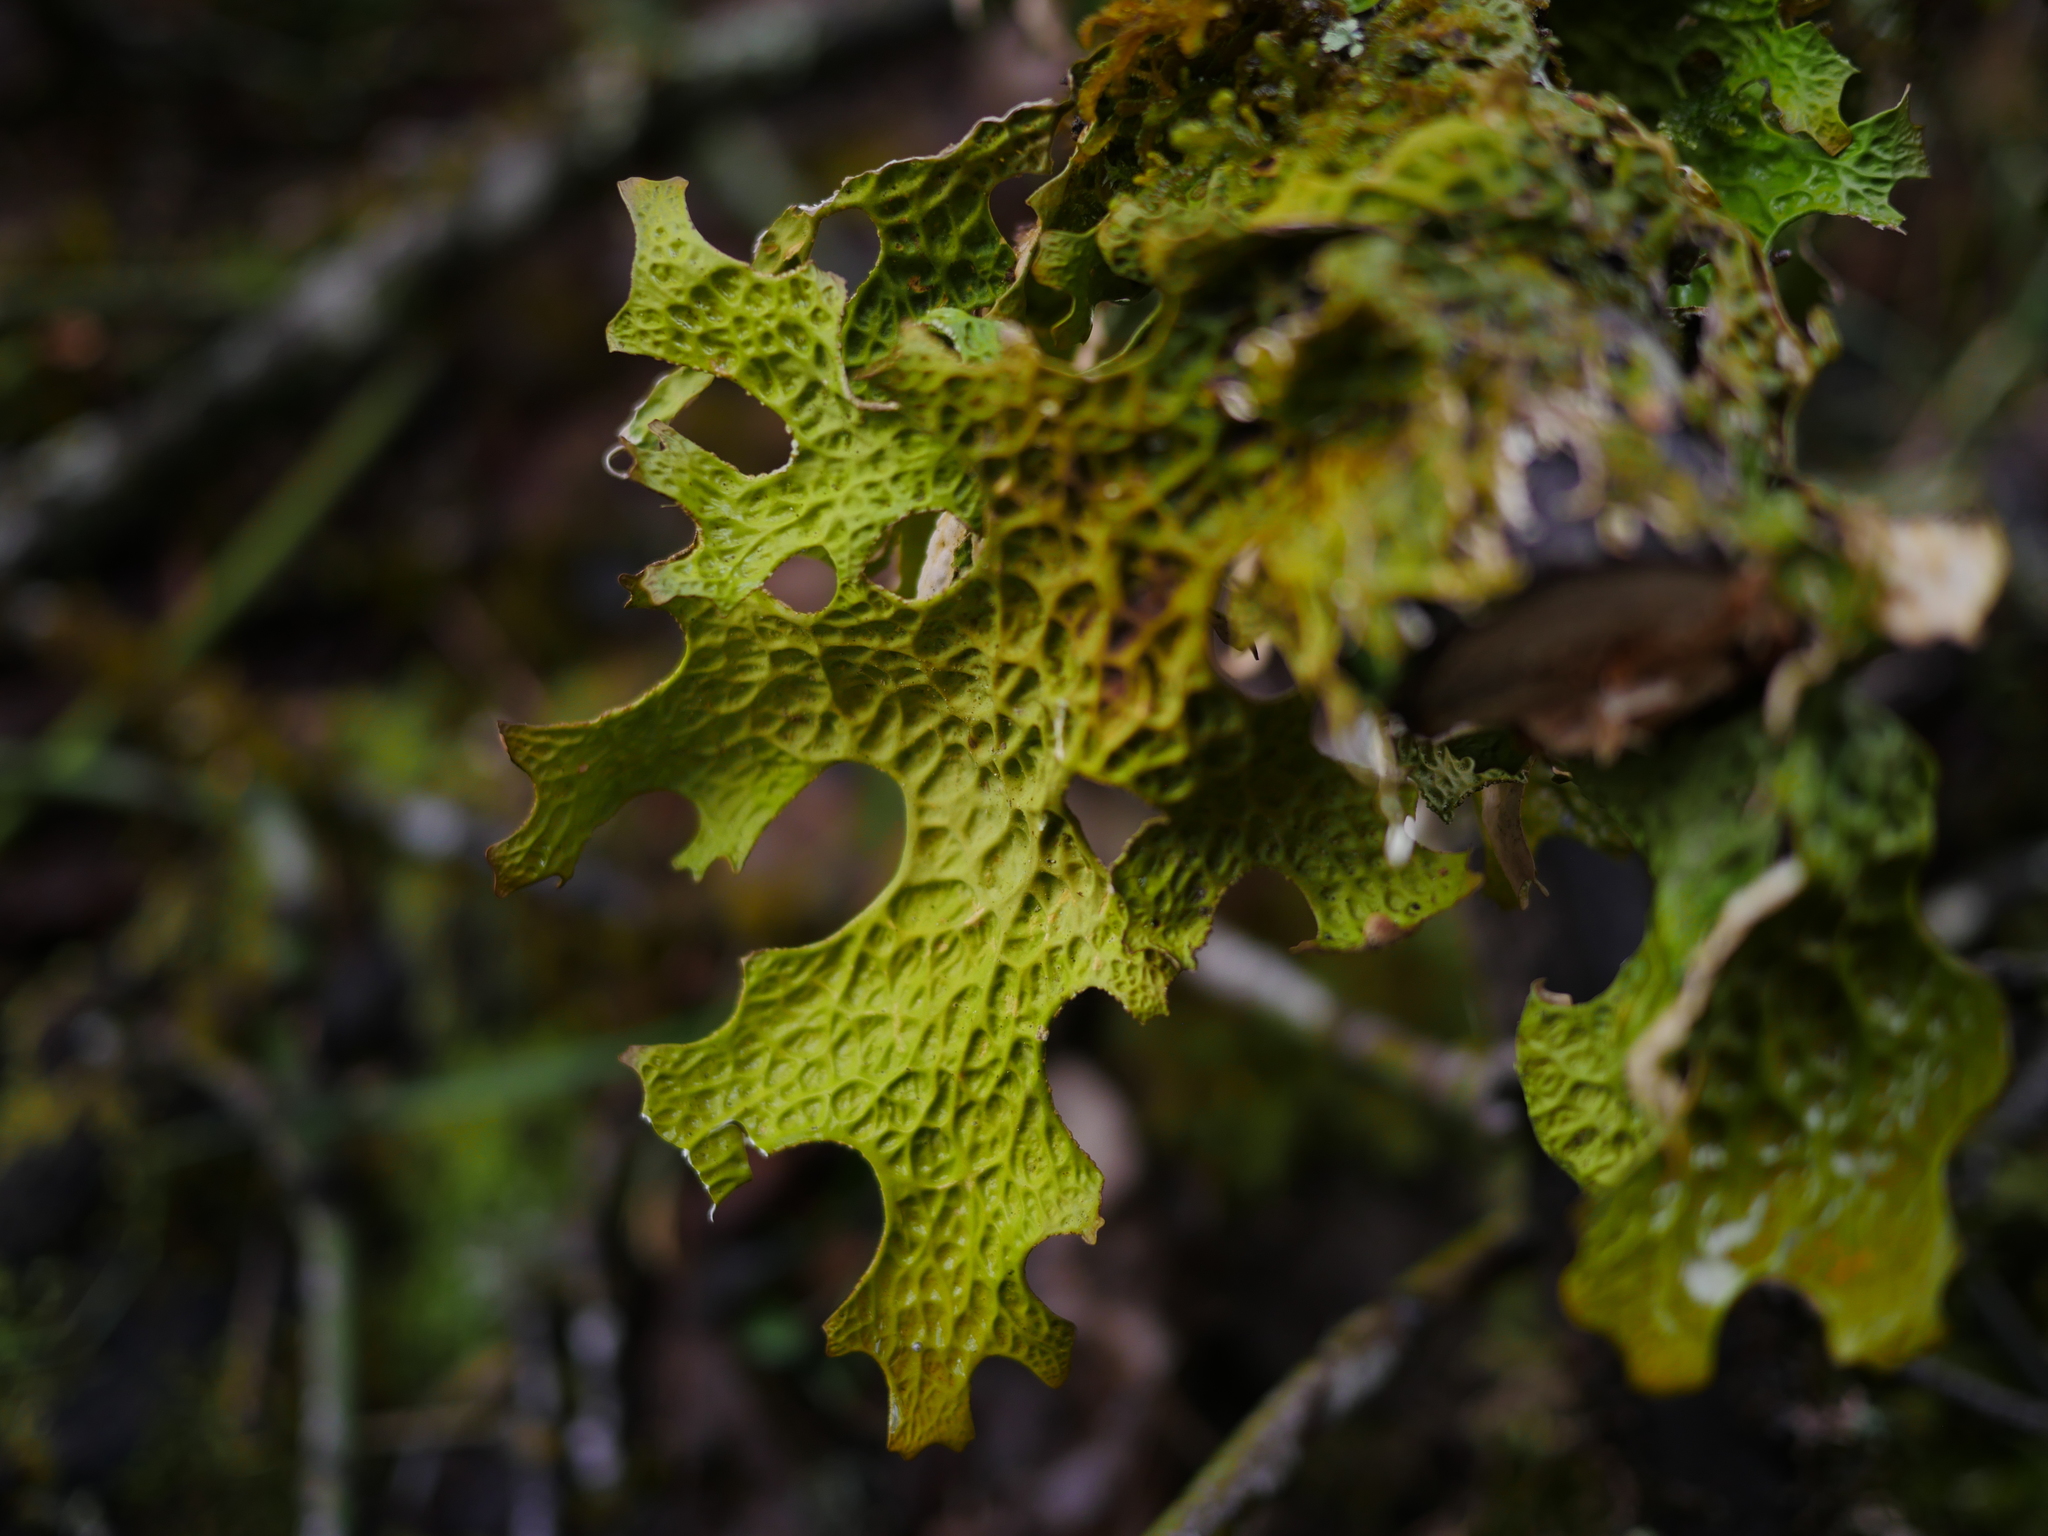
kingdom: Fungi
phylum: Ascomycota
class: Lecanoromycetes
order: Peltigerales
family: Lobariaceae
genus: Lobaria
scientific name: Lobaria pulmonaria
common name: Lungwort
